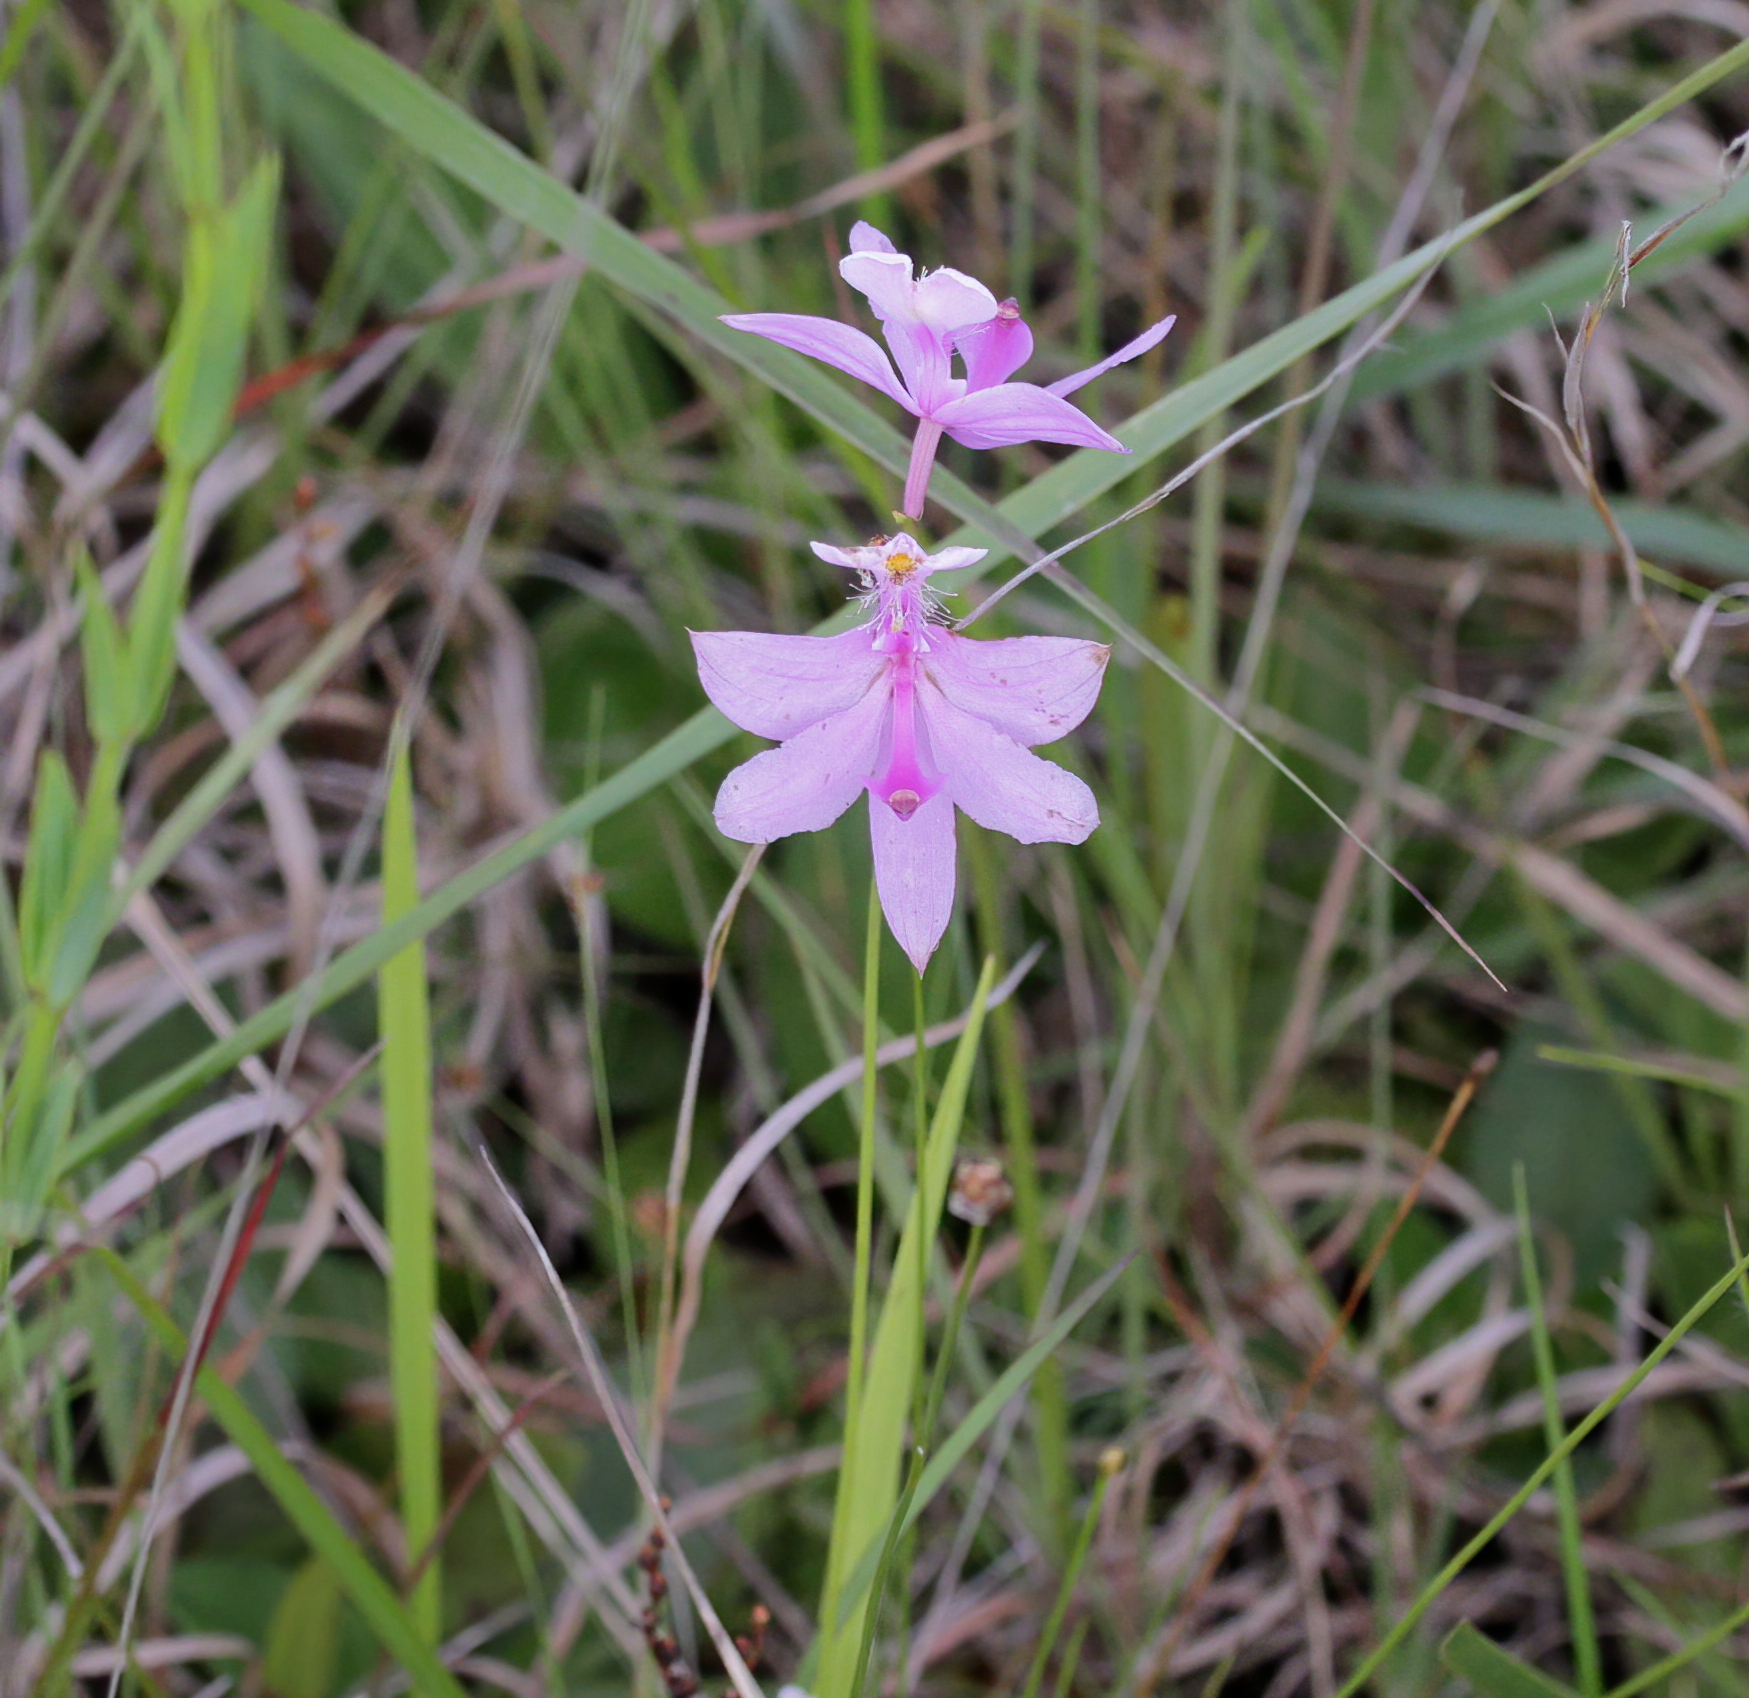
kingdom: Plantae
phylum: Tracheophyta
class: Liliopsida
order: Asparagales
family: Orchidaceae
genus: Calopogon
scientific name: Calopogon tuberosus
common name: Grass-pink
